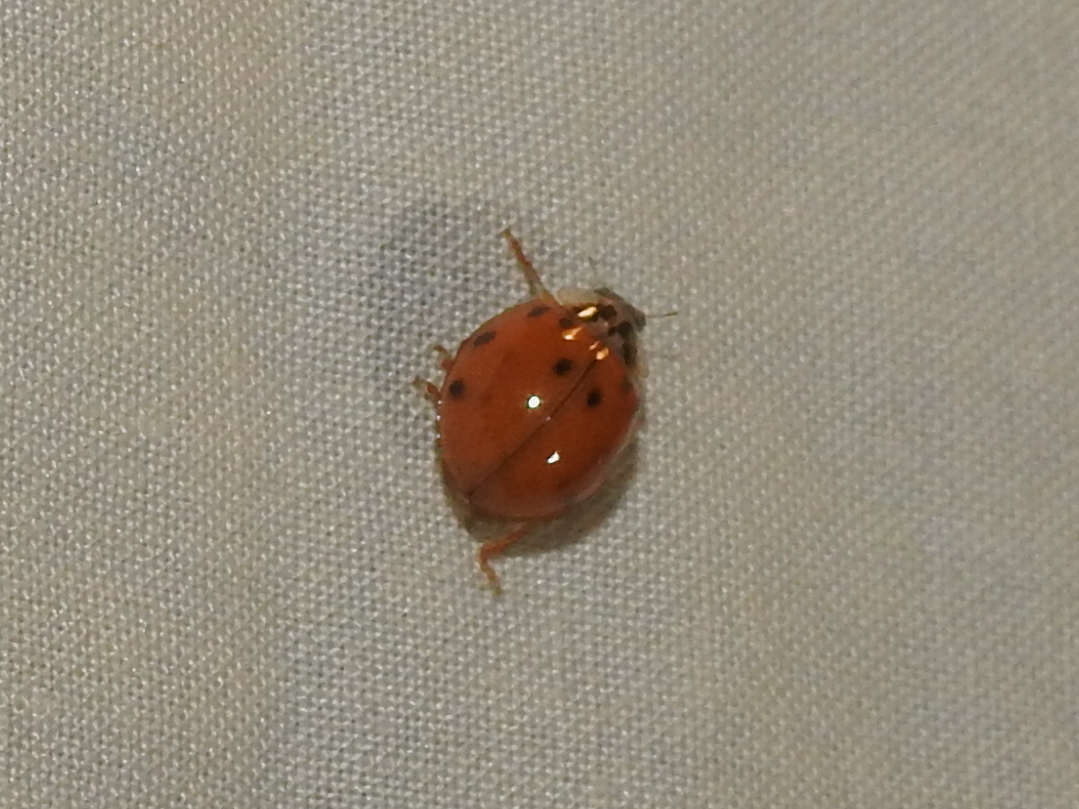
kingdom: Animalia
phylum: Arthropoda
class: Insecta
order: Coleoptera
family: Coccinellidae
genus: Harmonia
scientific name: Harmonia axyridis
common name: Harlequin ladybird
